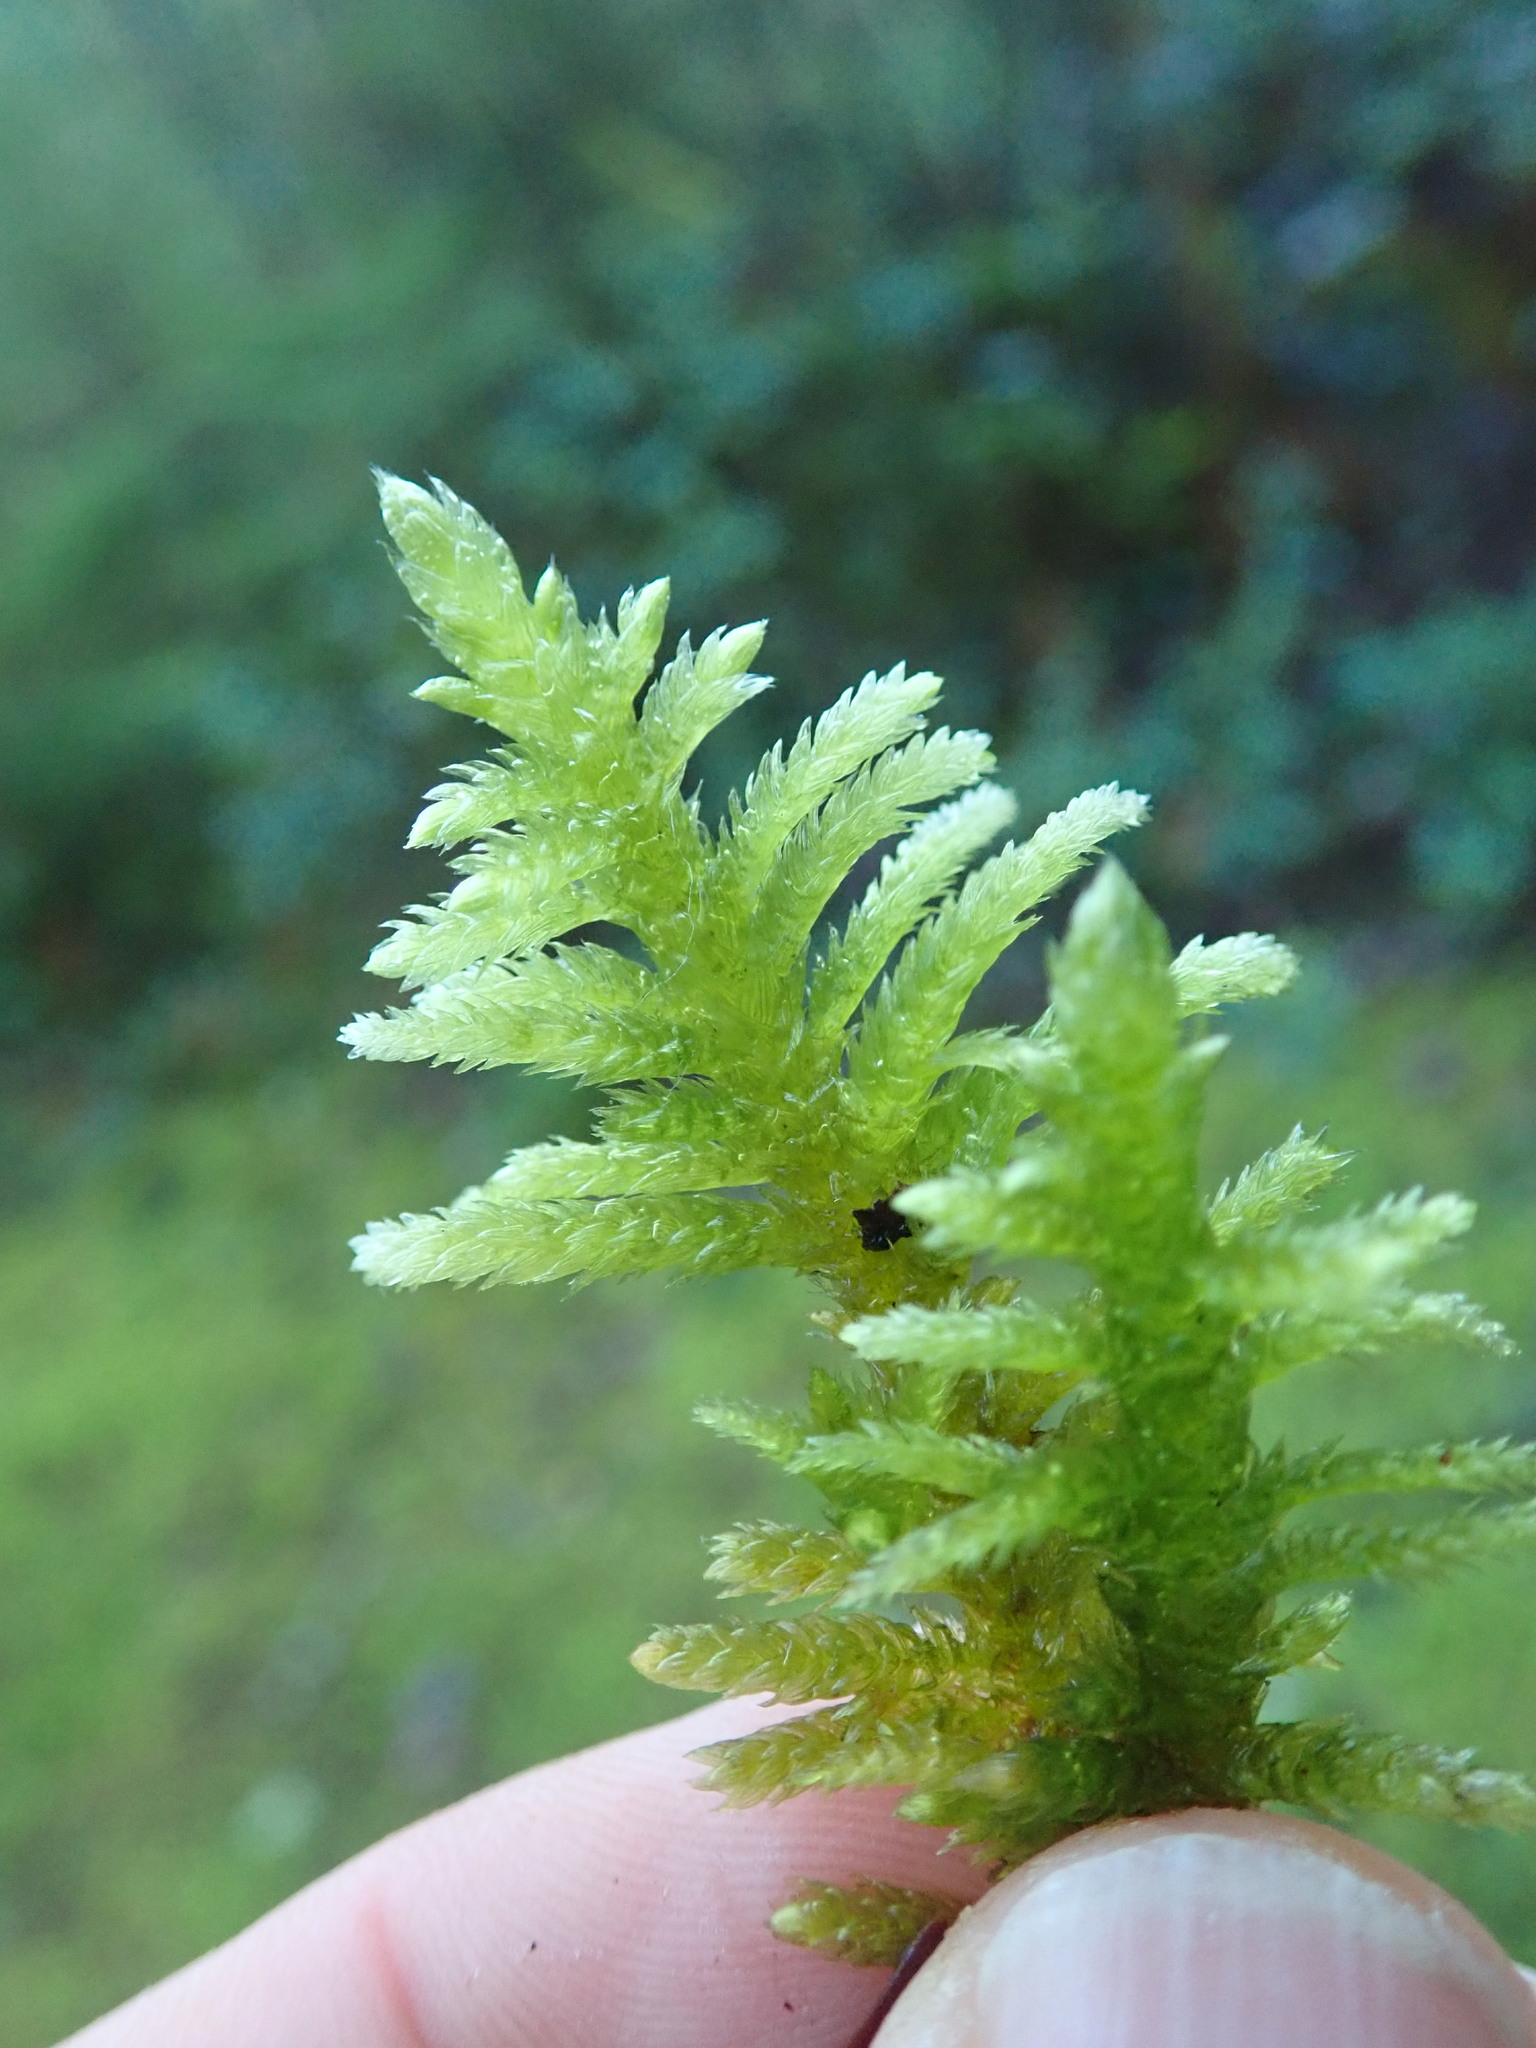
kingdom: Plantae
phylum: Bryophyta
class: Bryopsida
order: Hypnales
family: Brachytheciaceae
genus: Homalothecium
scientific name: Homalothecium megaptilum
